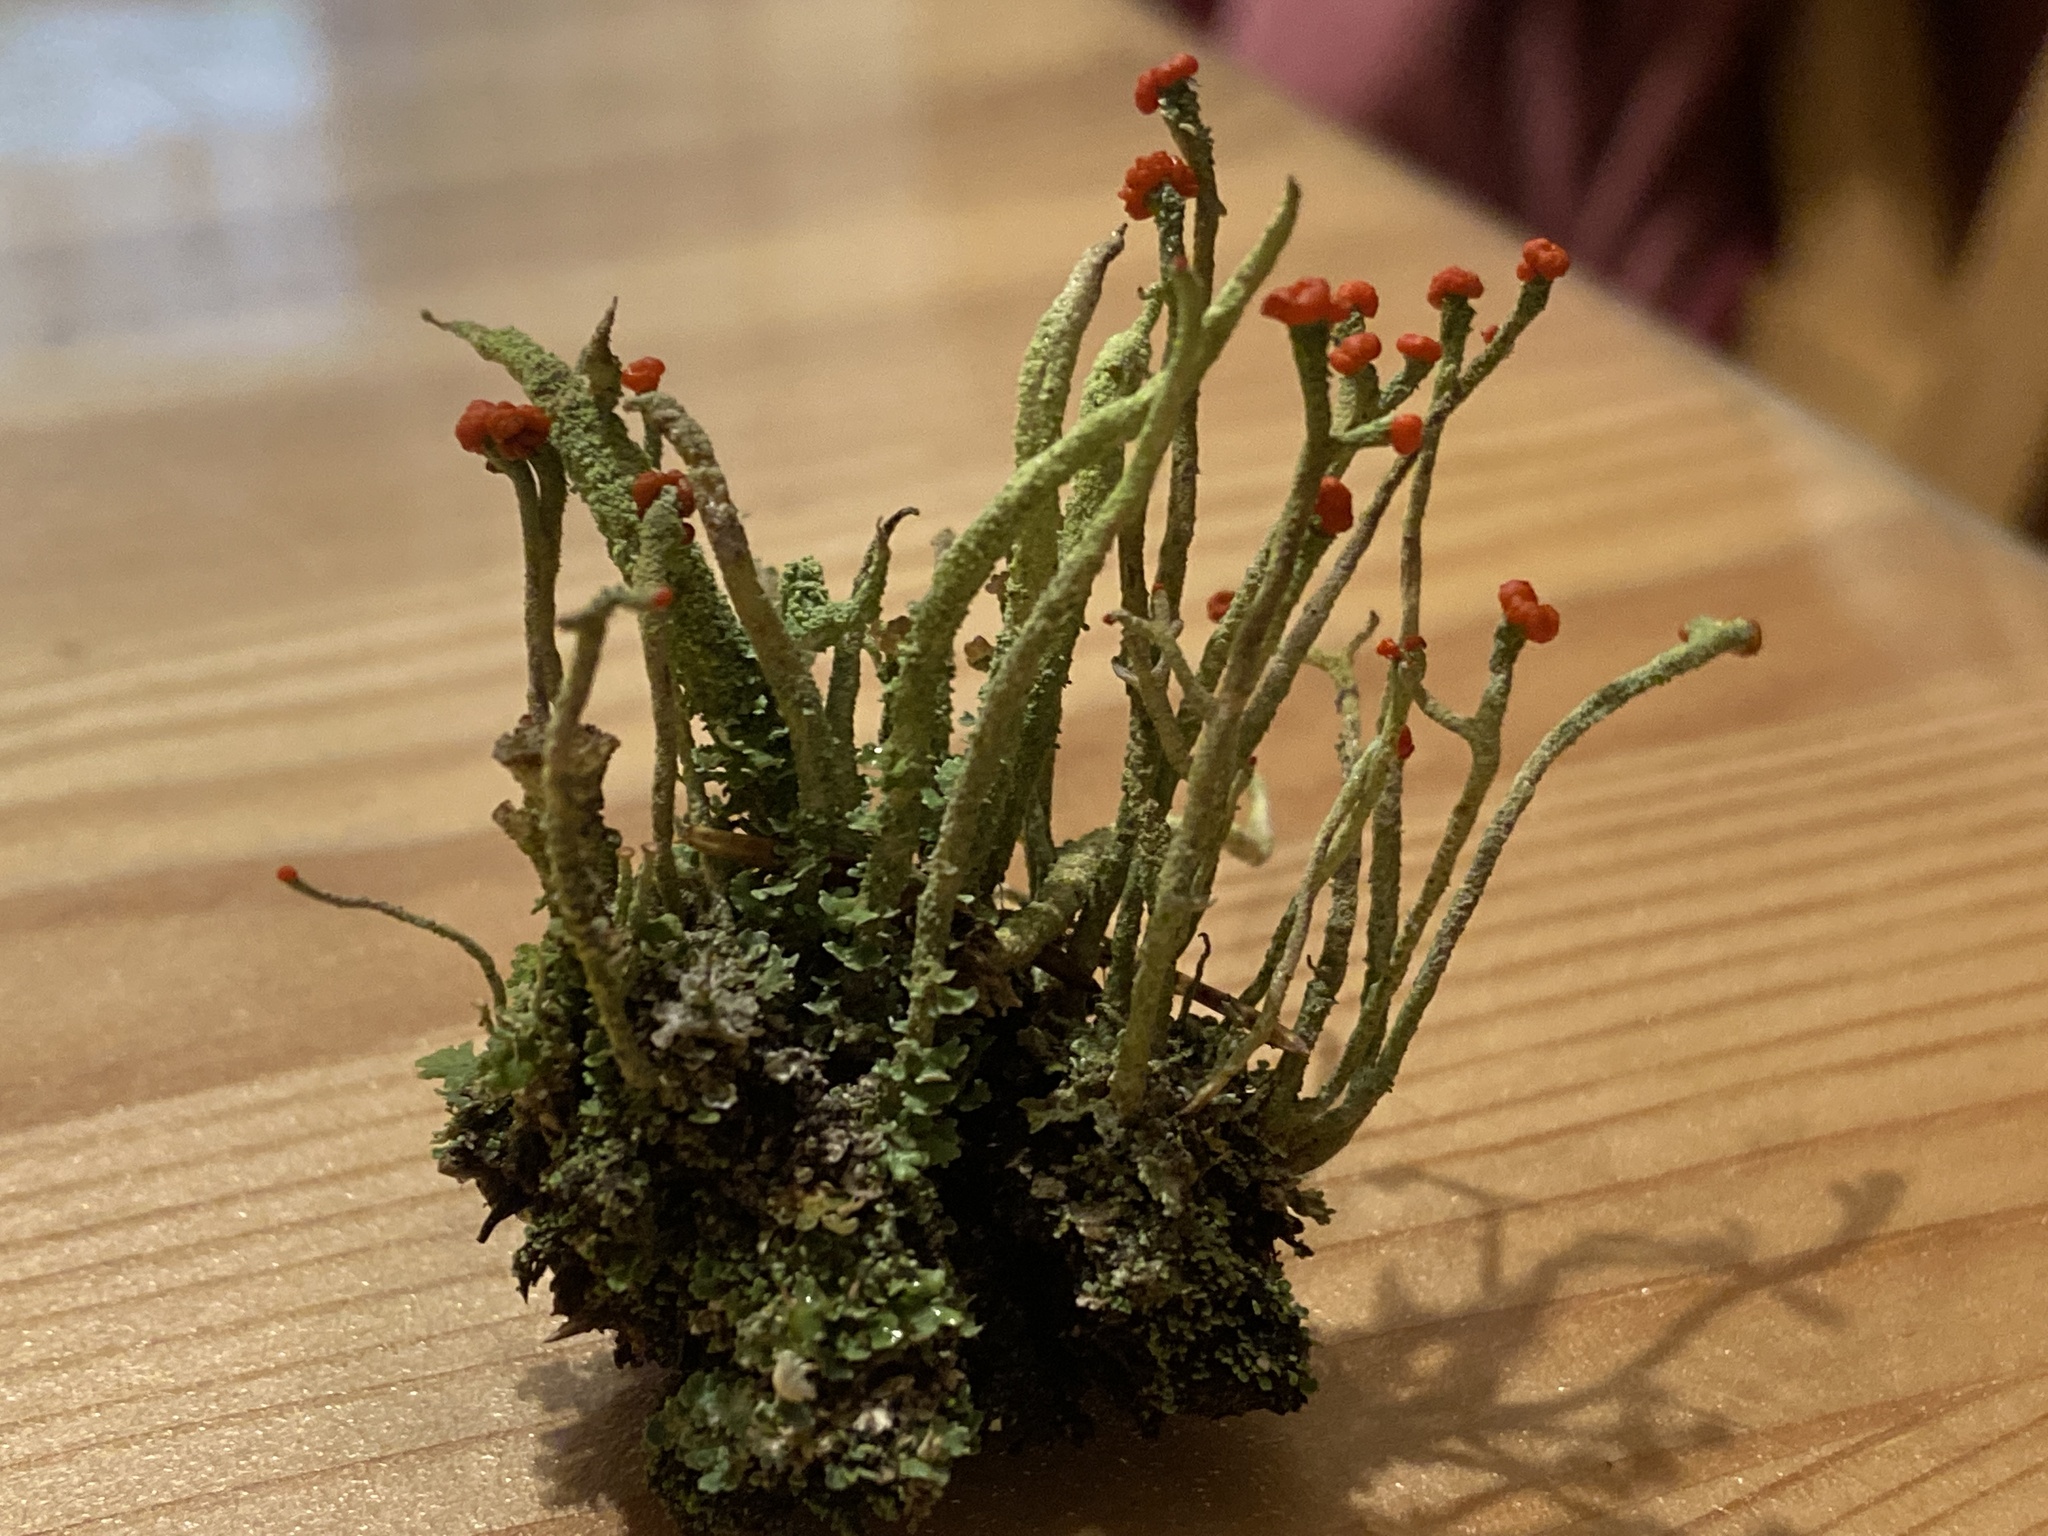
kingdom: Fungi
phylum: Ascomycota
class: Lecanoromycetes
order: Lecanorales
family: Cladoniaceae
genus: Cladonia
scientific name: Cladonia macilenta
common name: Lipstick powderhorn
